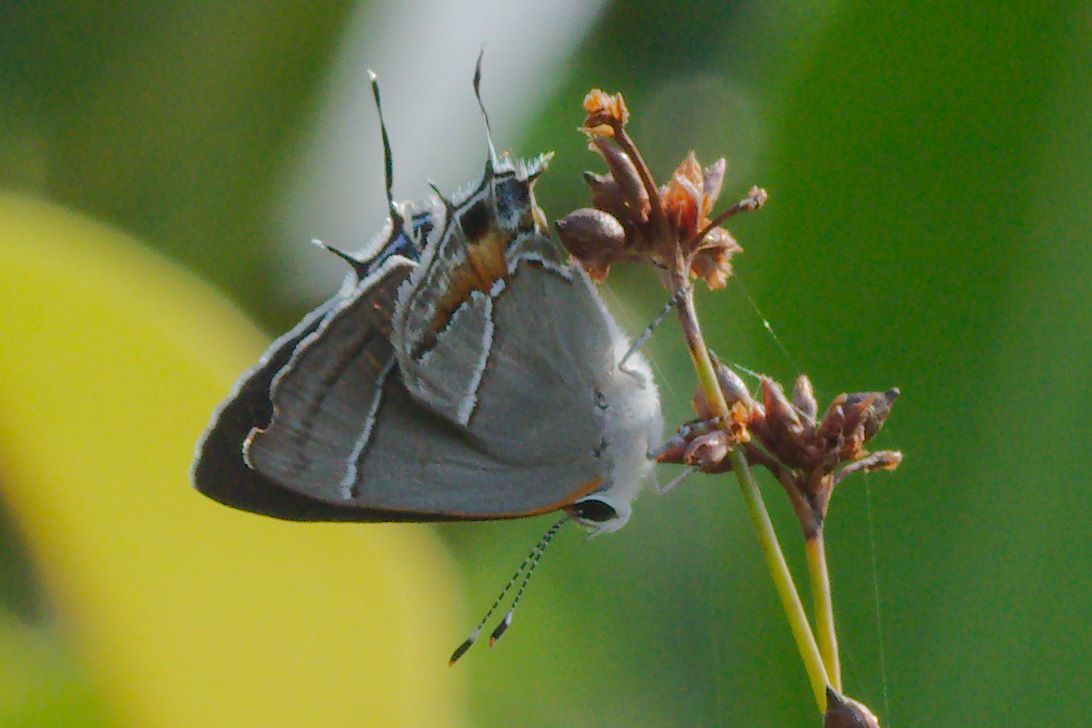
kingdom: Animalia
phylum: Arthropoda
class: Insecta
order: Lepidoptera
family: Lycaenidae
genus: Thecla
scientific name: Thecla martialis
